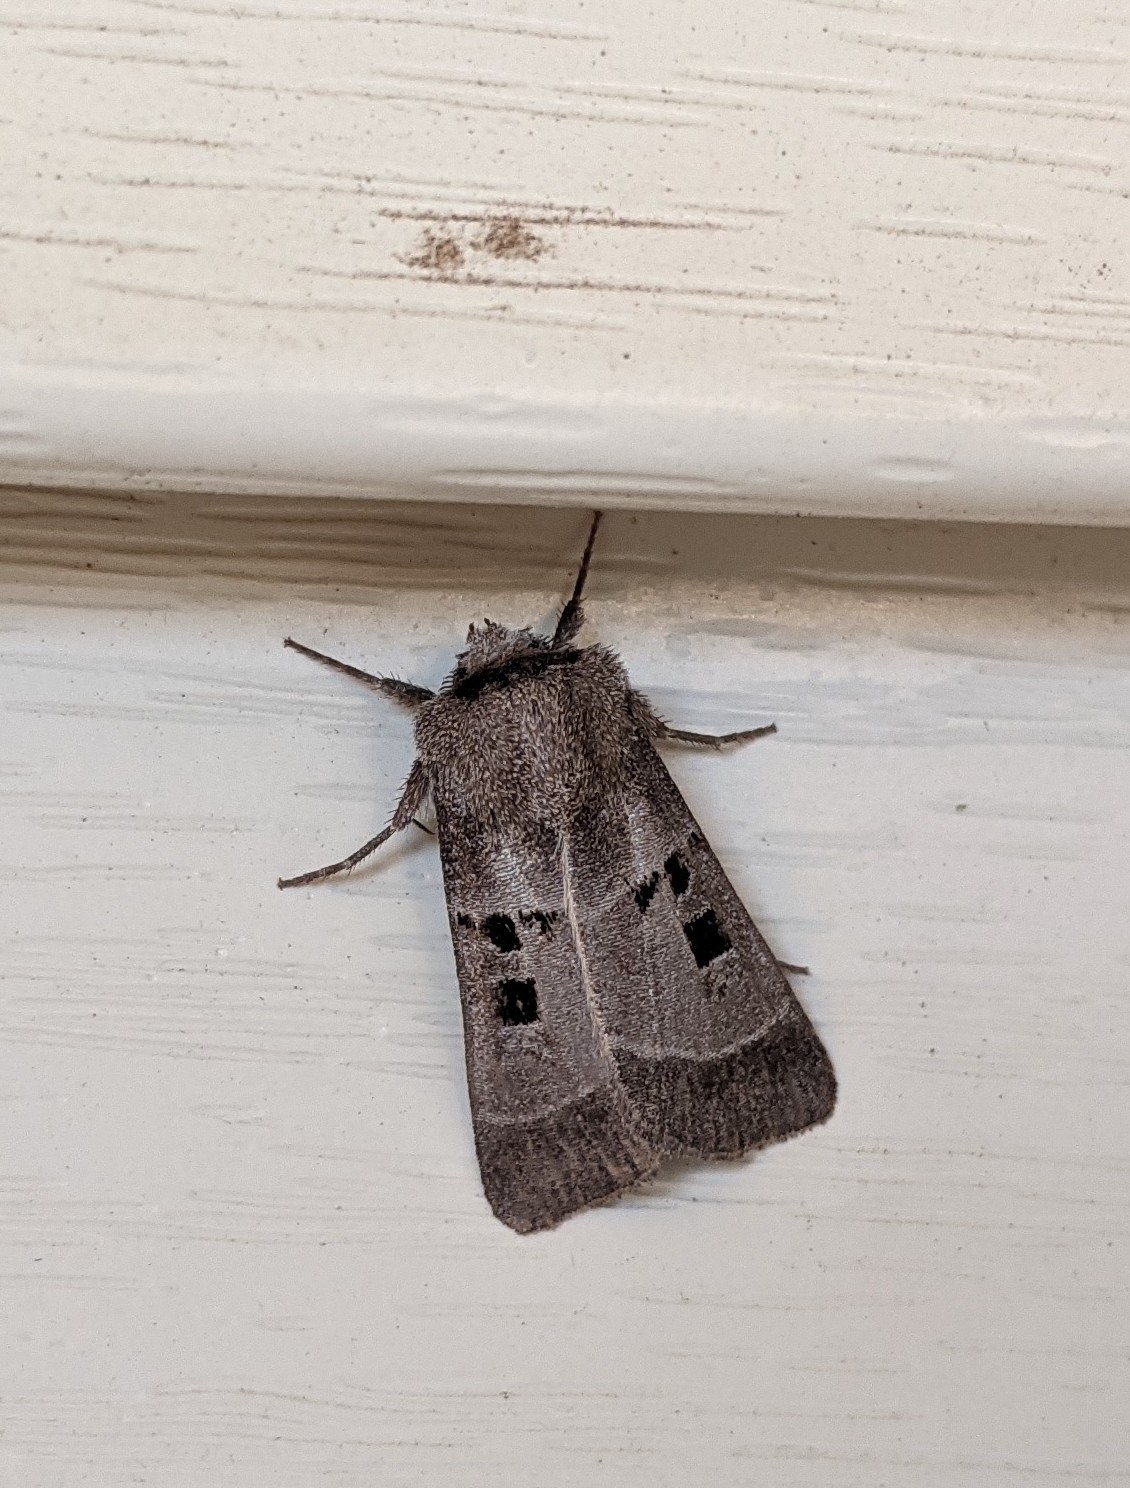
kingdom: Animalia
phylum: Arthropoda
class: Insecta
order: Lepidoptera
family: Noctuidae
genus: Agnorisma
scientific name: Agnorisma bollii
